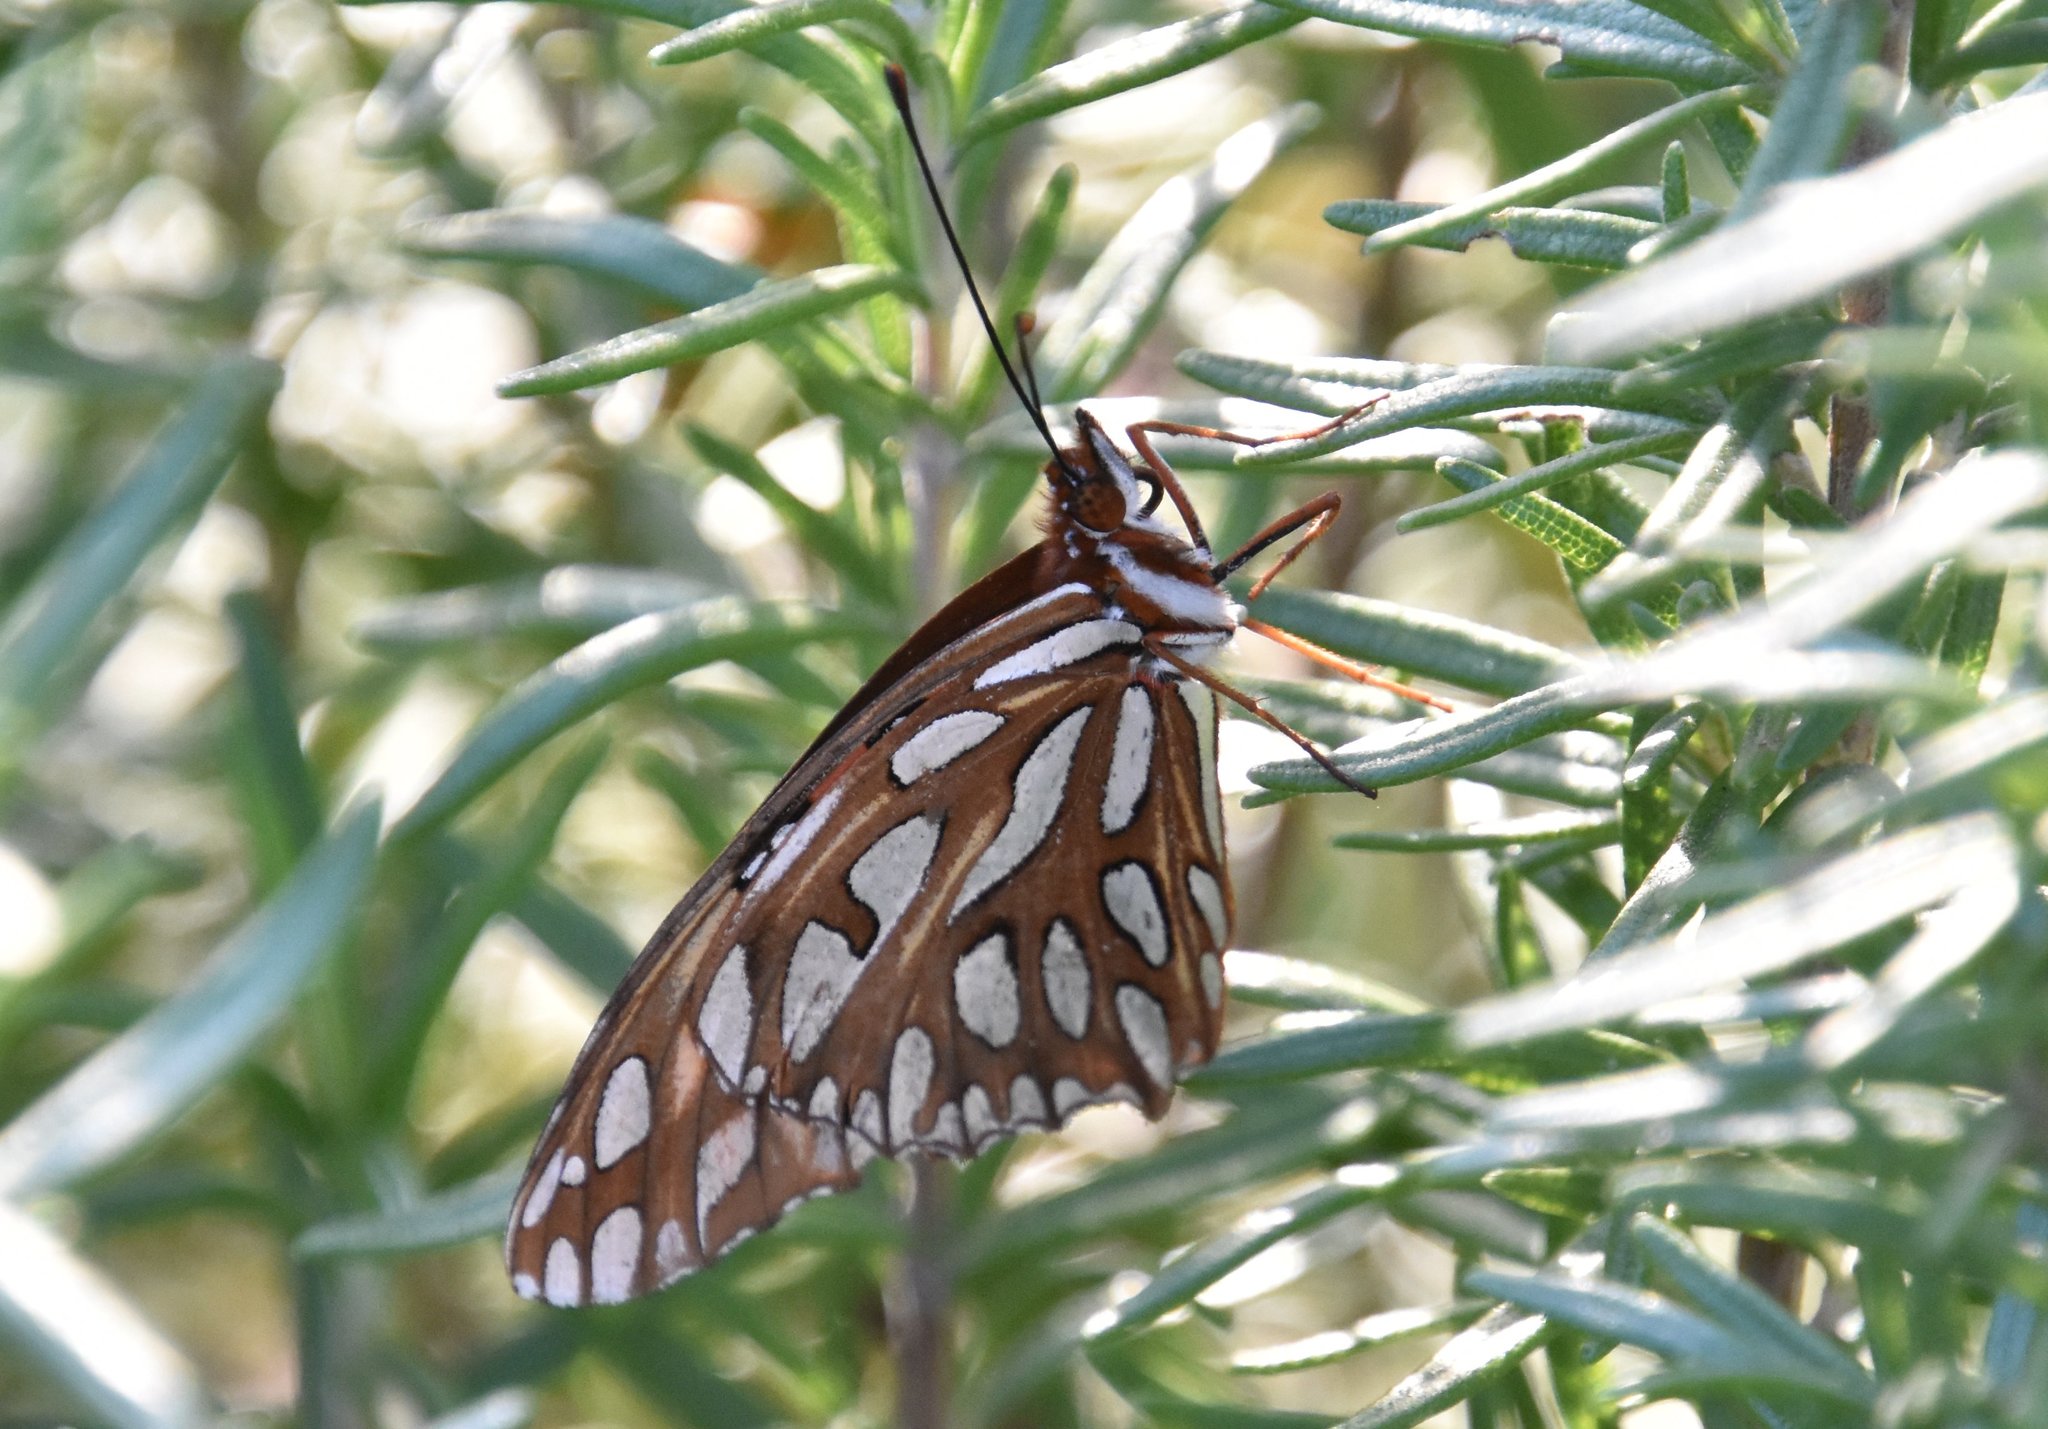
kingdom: Animalia
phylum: Arthropoda
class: Insecta
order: Lepidoptera
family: Nymphalidae
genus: Dione
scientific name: Dione vanillae
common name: Gulf fritillary
